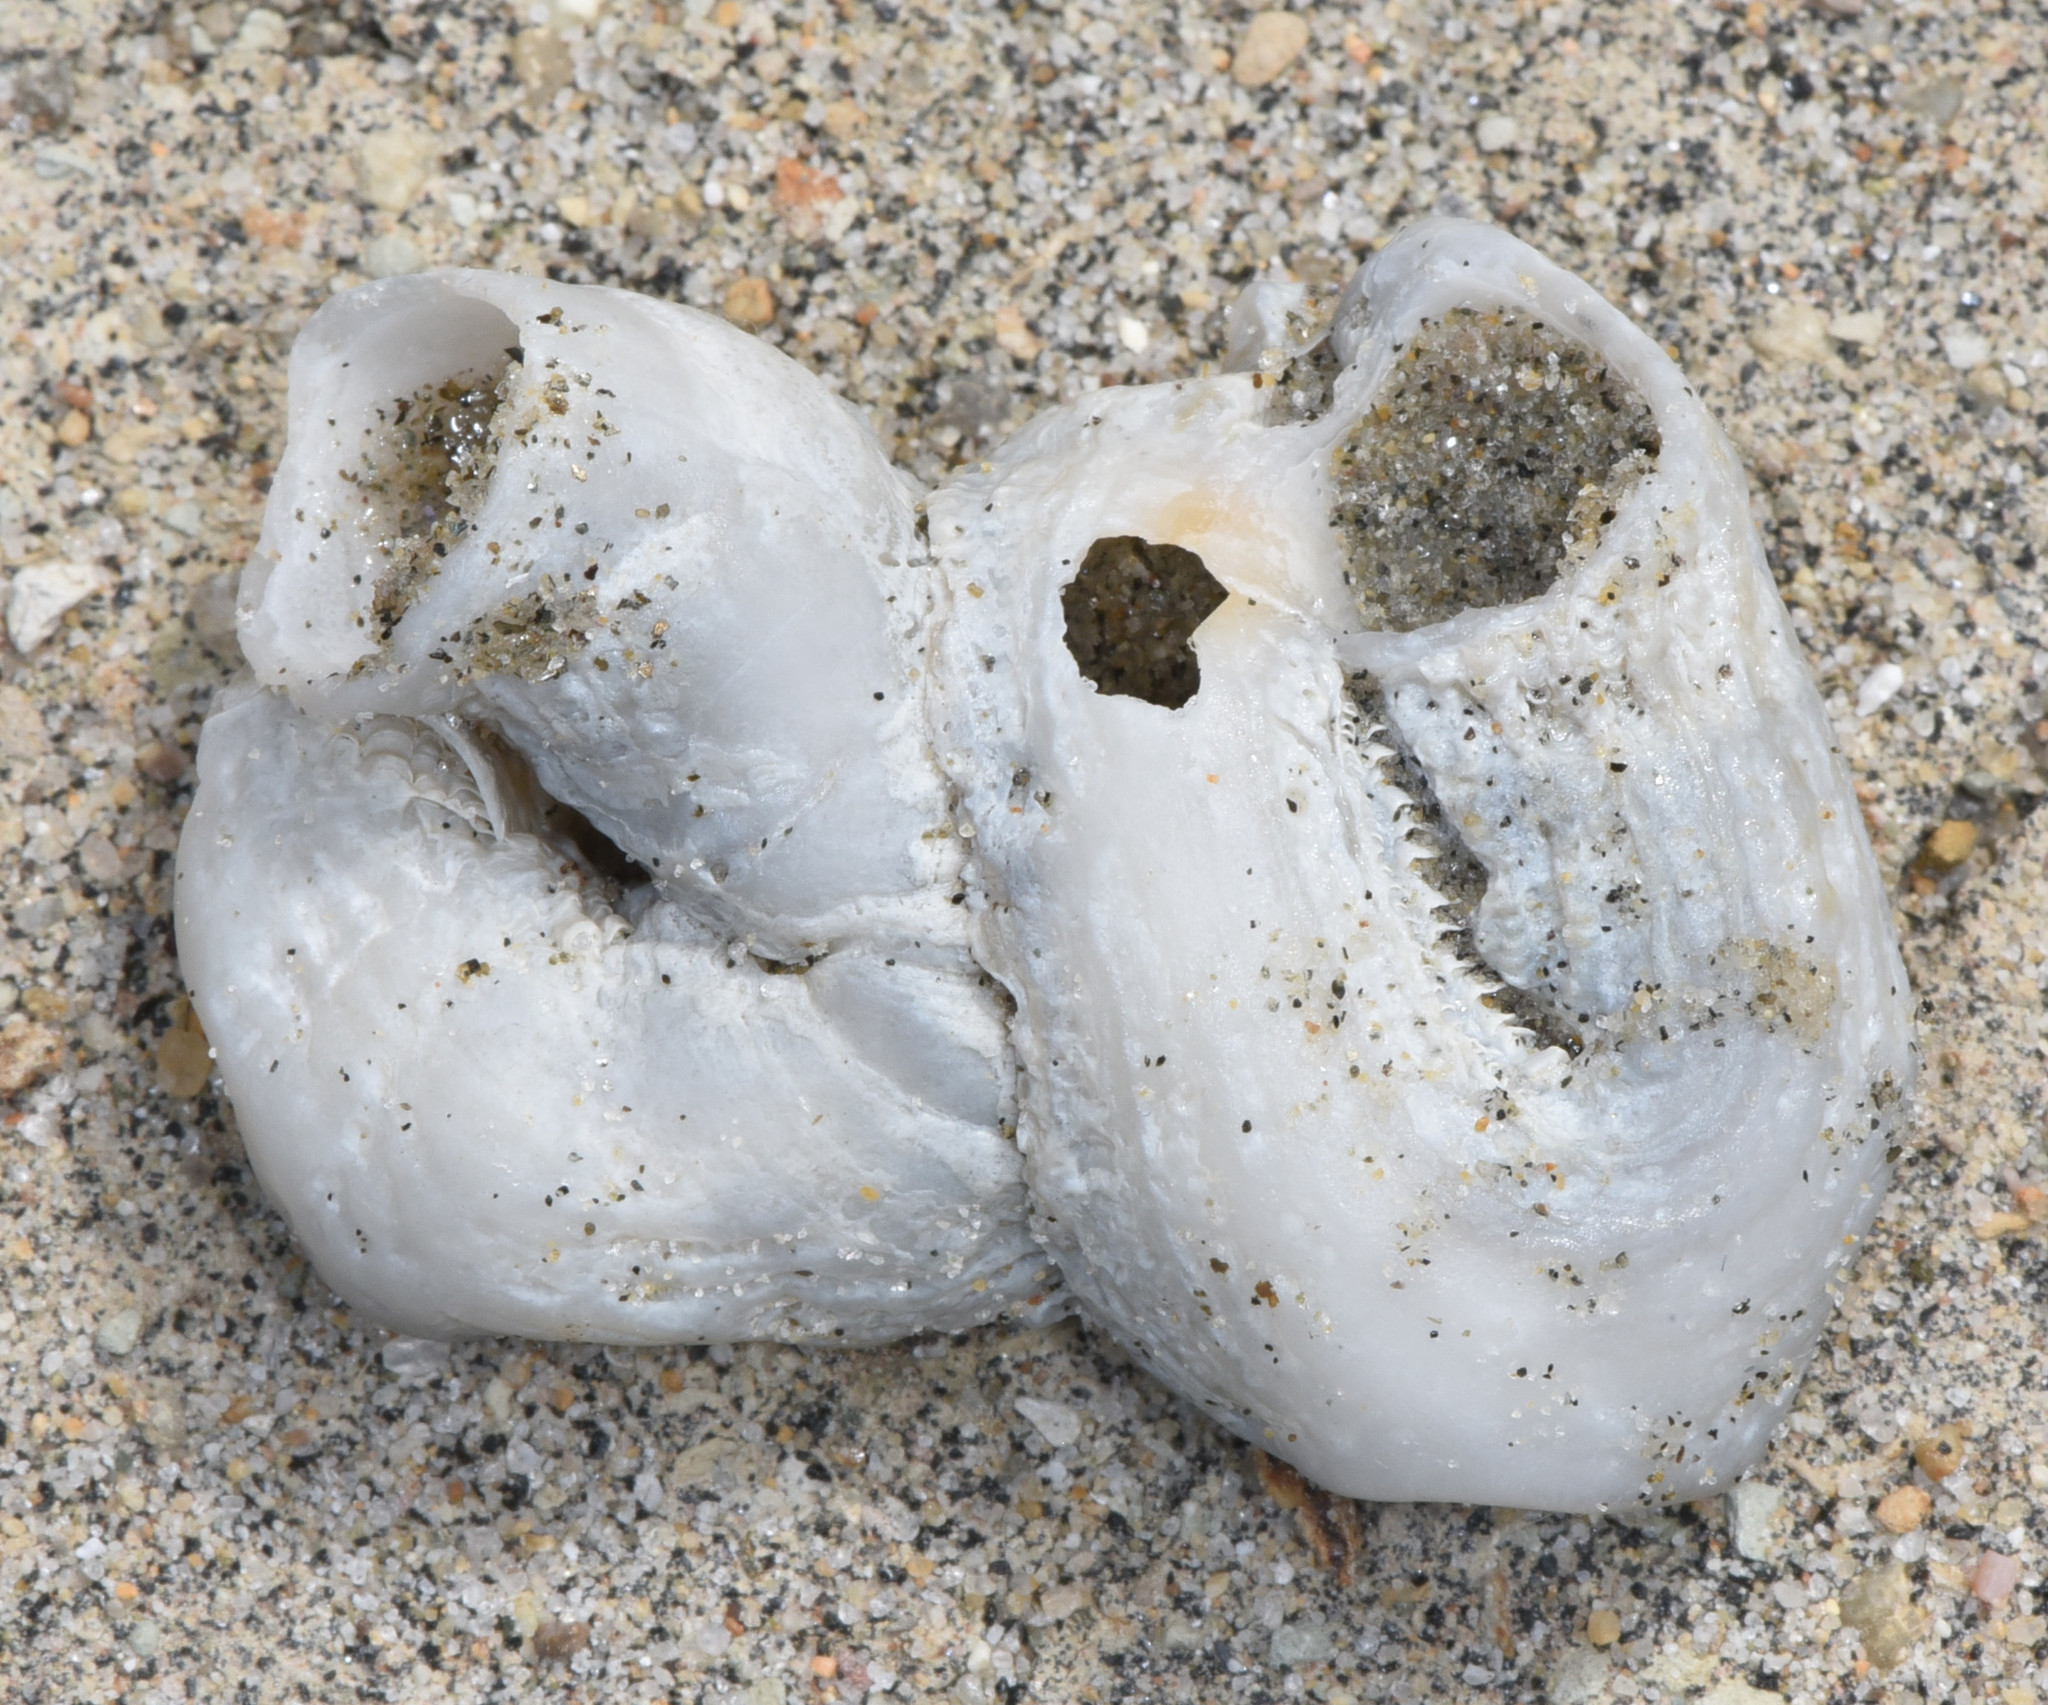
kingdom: Animalia
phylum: Mollusca
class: Gastropoda
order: Littorinimorpha
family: Vermetidae
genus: Thylacodes
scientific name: Thylacodes squamigerus
